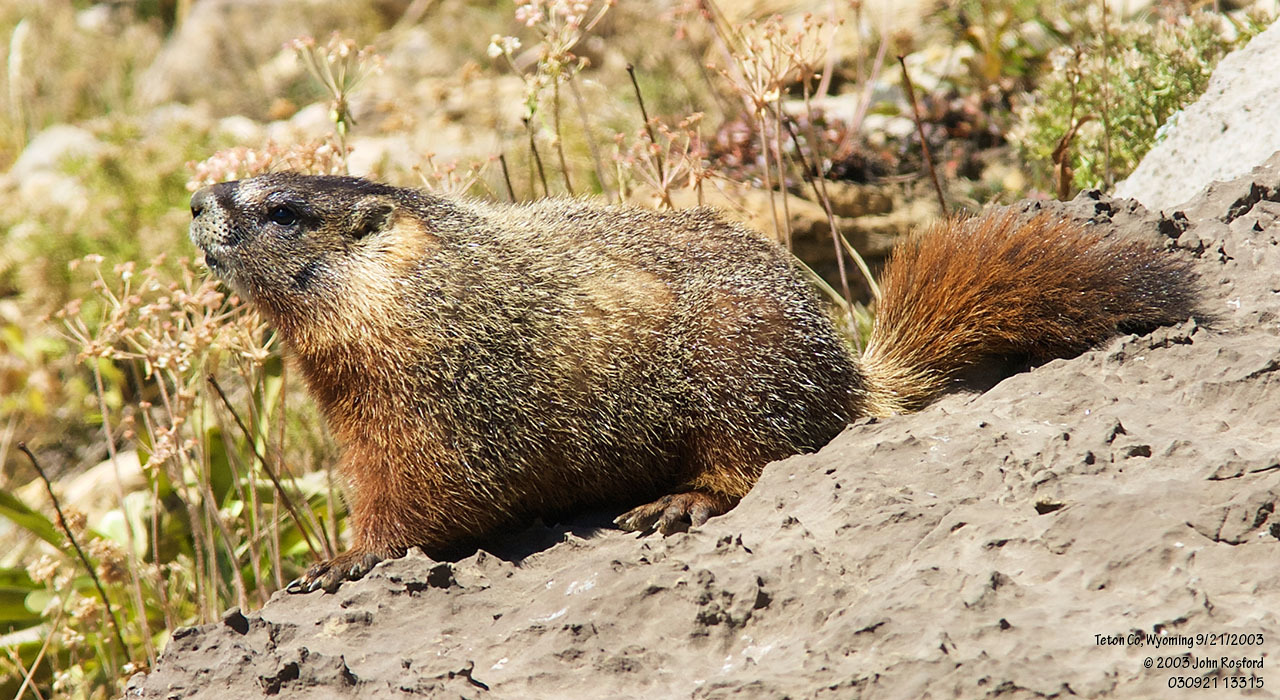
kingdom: Animalia
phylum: Chordata
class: Mammalia
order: Rodentia
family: Sciuridae
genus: Marmota
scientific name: Marmota flaviventris
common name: Yellow-bellied marmot
